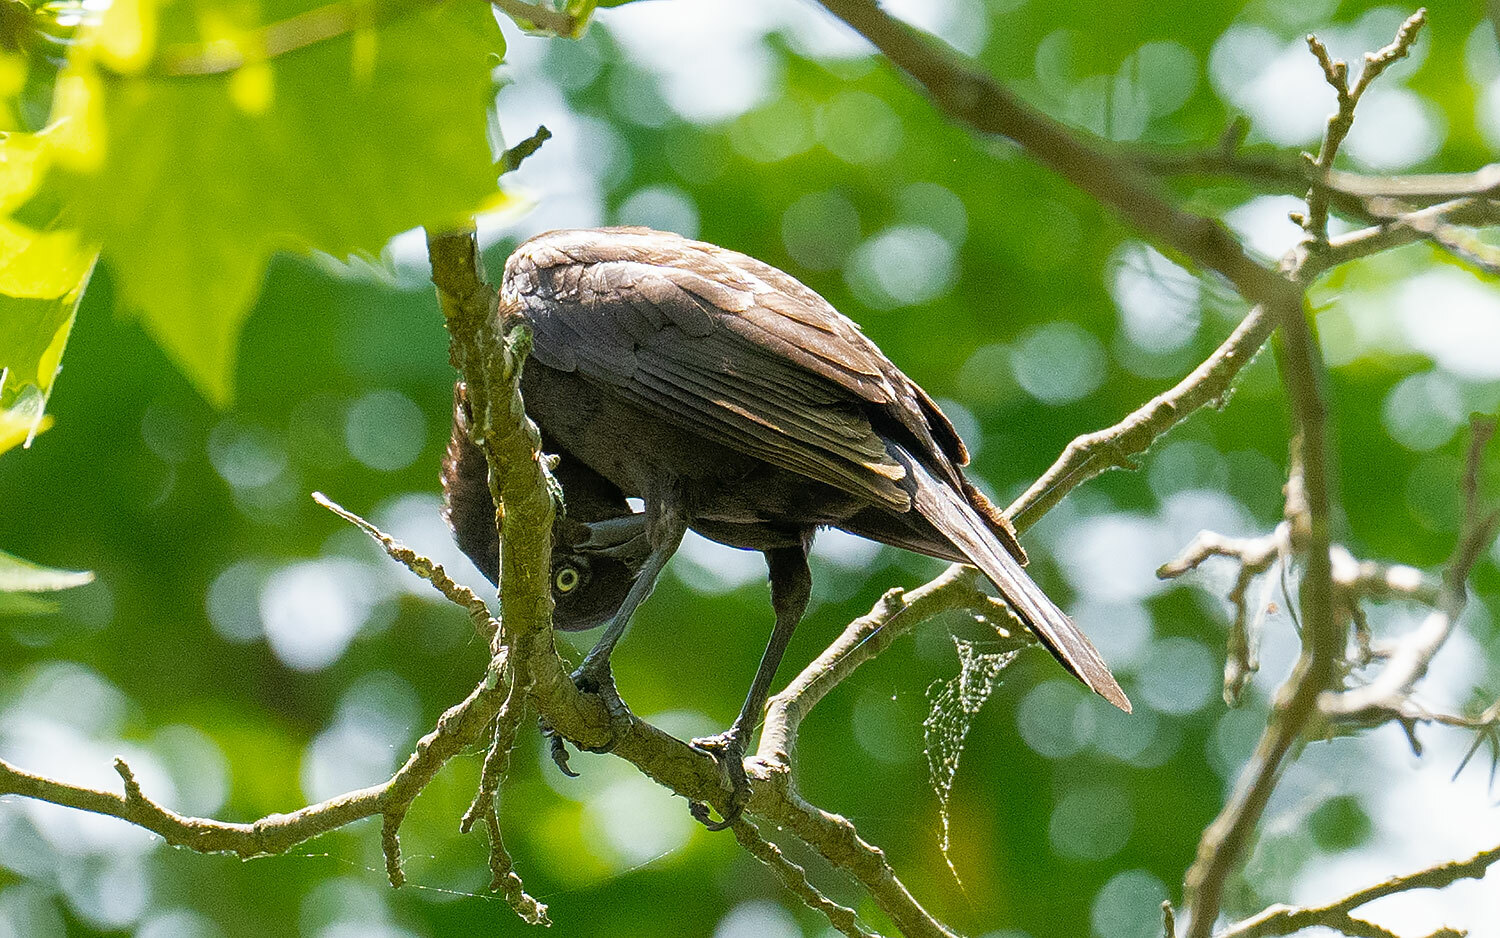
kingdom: Animalia
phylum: Chordata
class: Aves
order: Passeriformes
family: Icteridae
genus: Quiscalus
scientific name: Quiscalus quiscula
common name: Common grackle
